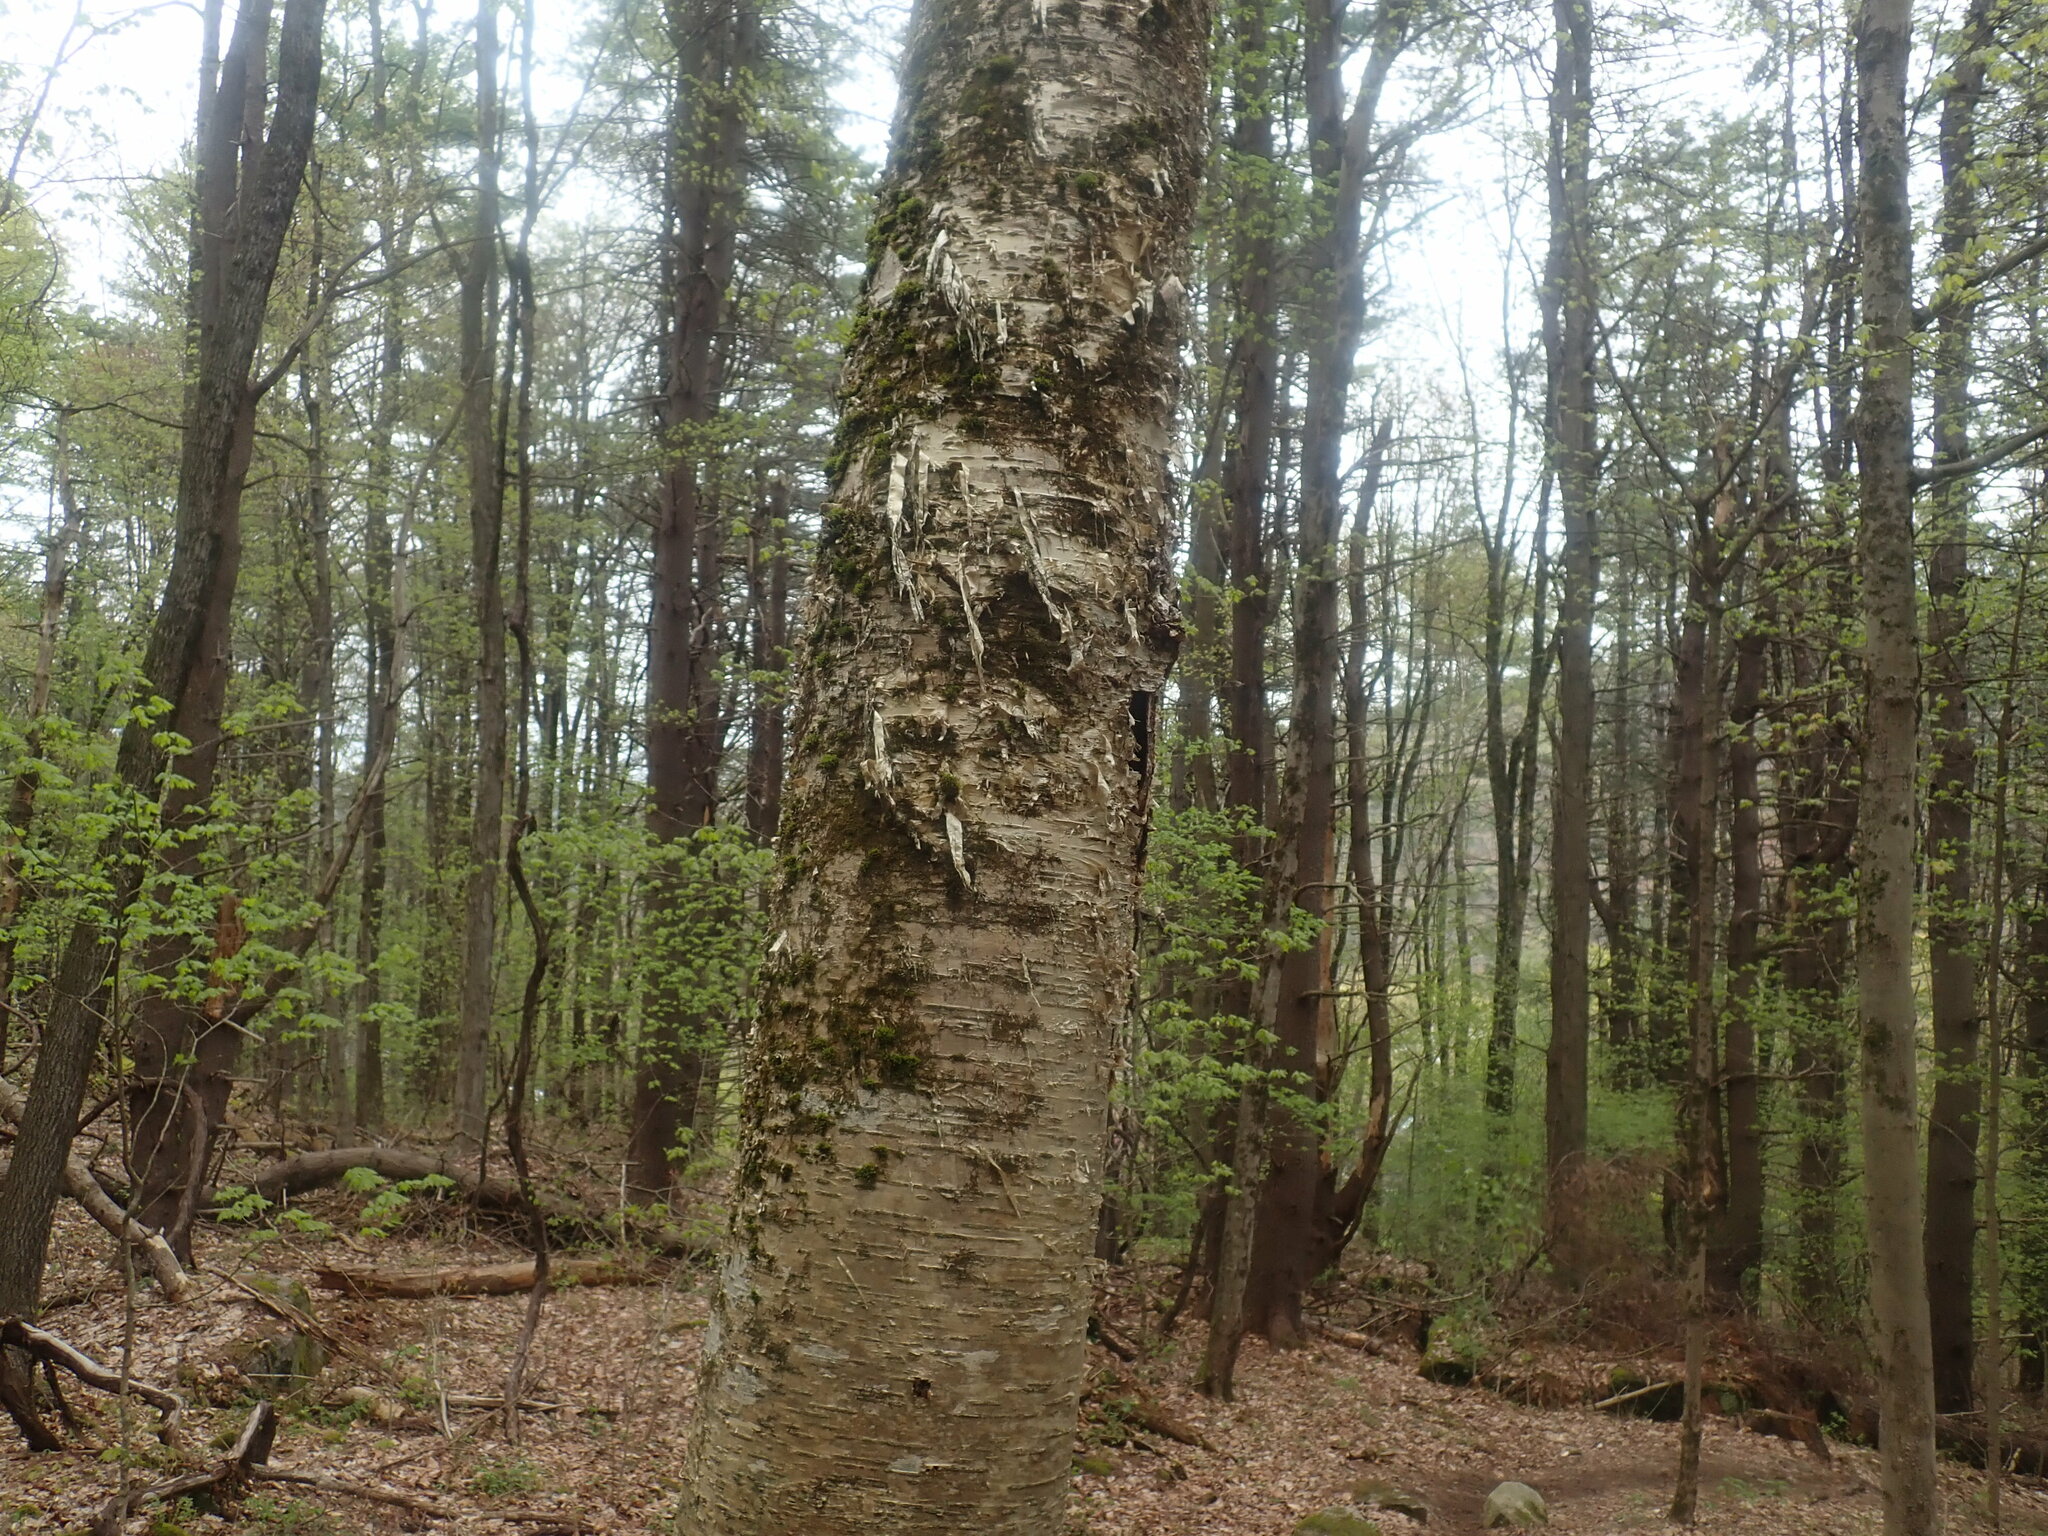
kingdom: Plantae
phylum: Tracheophyta
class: Magnoliopsida
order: Fagales
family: Betulaceae
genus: Betula
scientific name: Betula alleghaniensis
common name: Yellow birch
